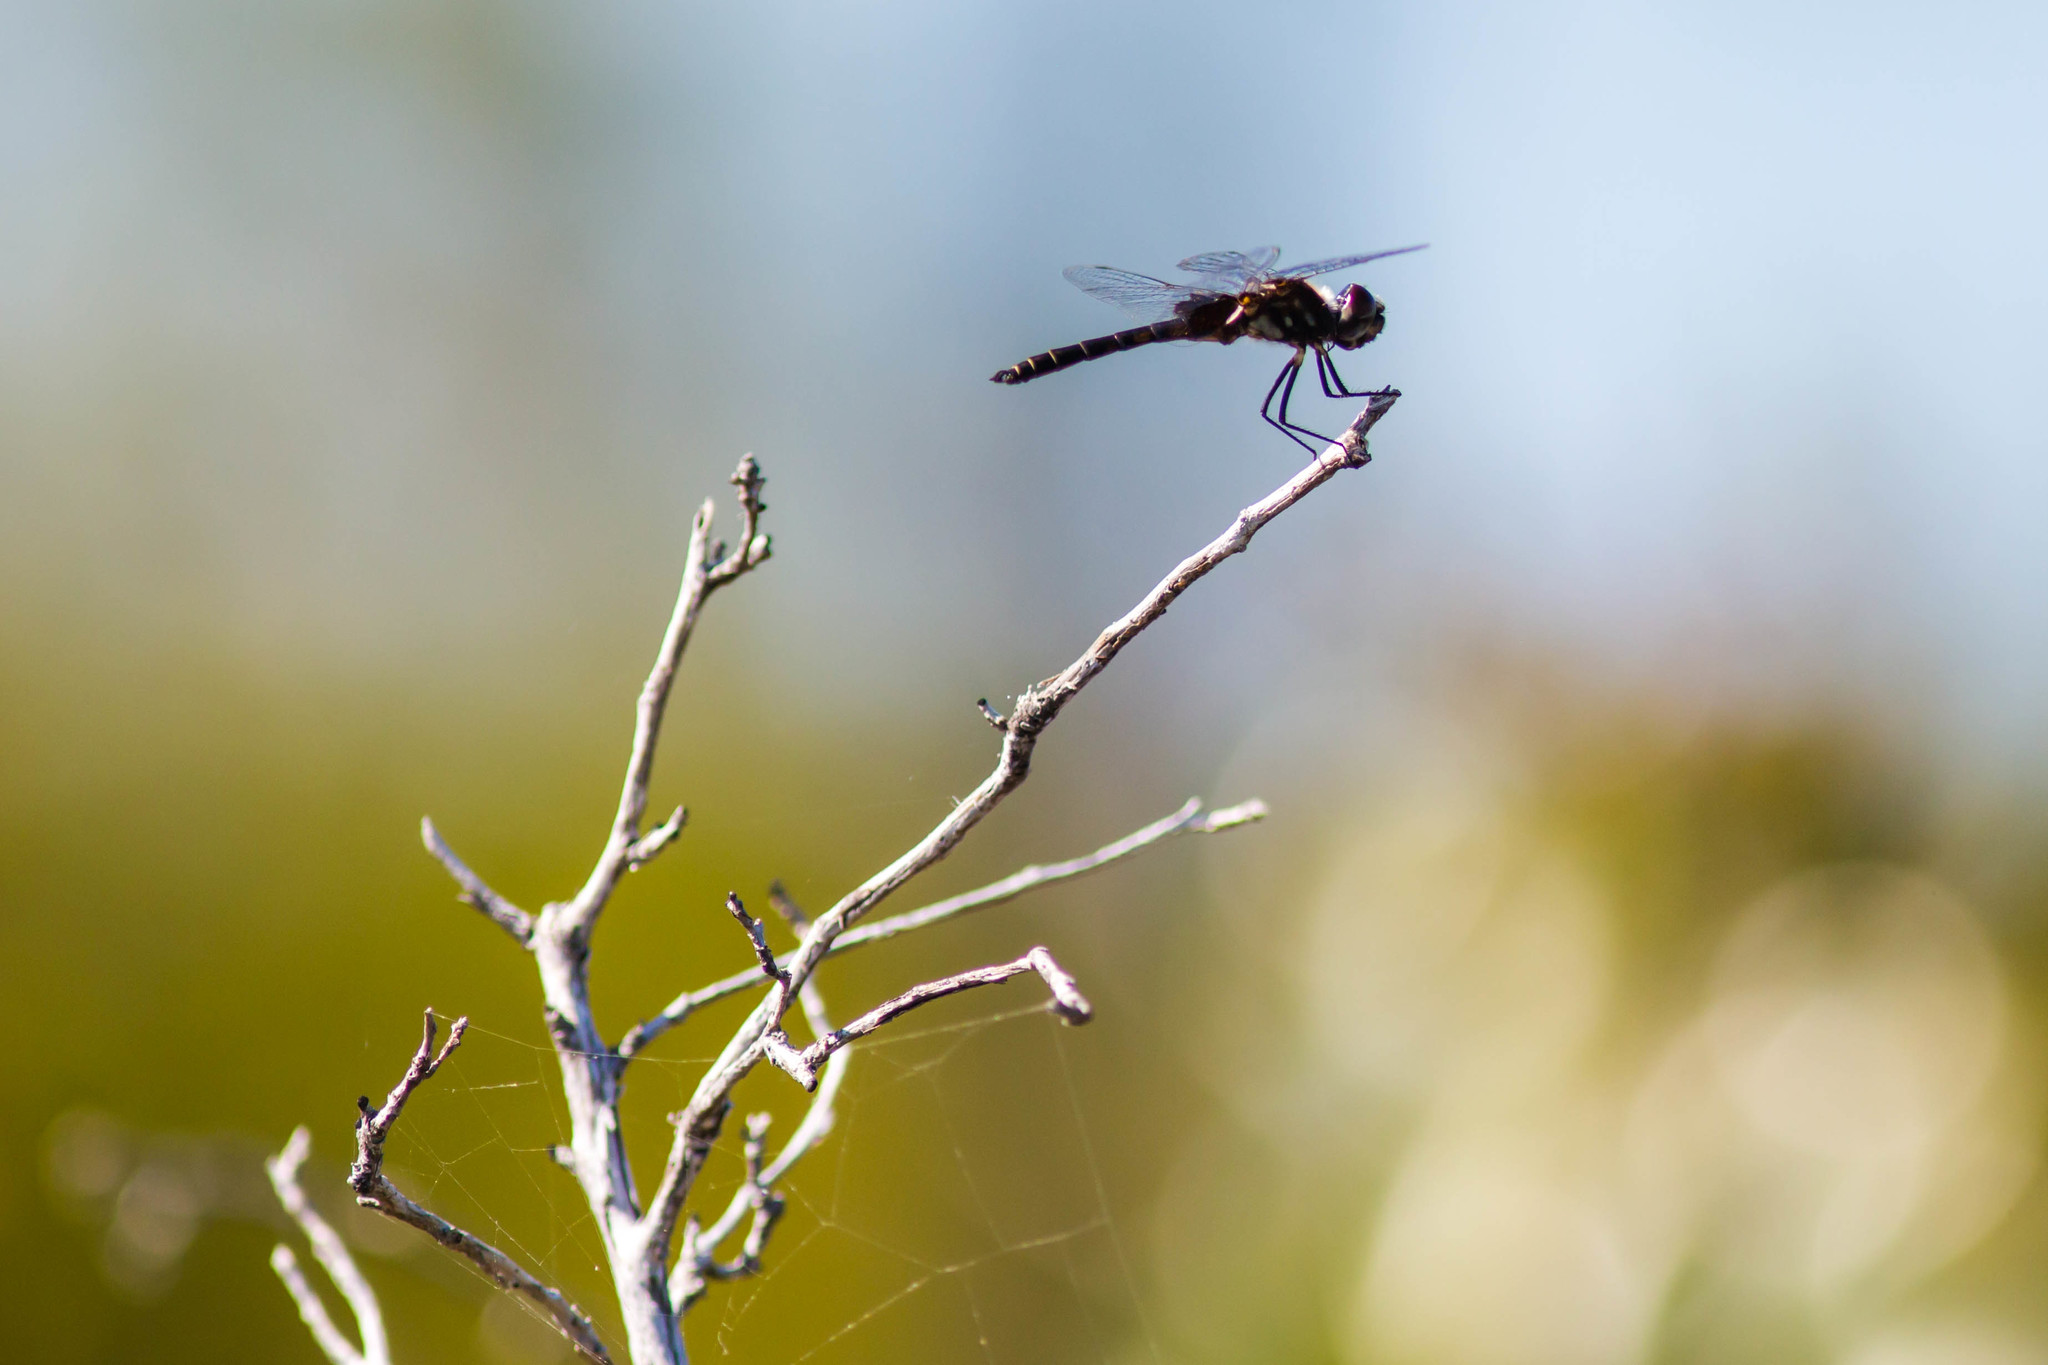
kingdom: Animalia
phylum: Arthropoda
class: Insecta
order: Odonata
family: Libellulidae
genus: Macrodiplax
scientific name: Macrodiplax balteata
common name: Marl pennant
